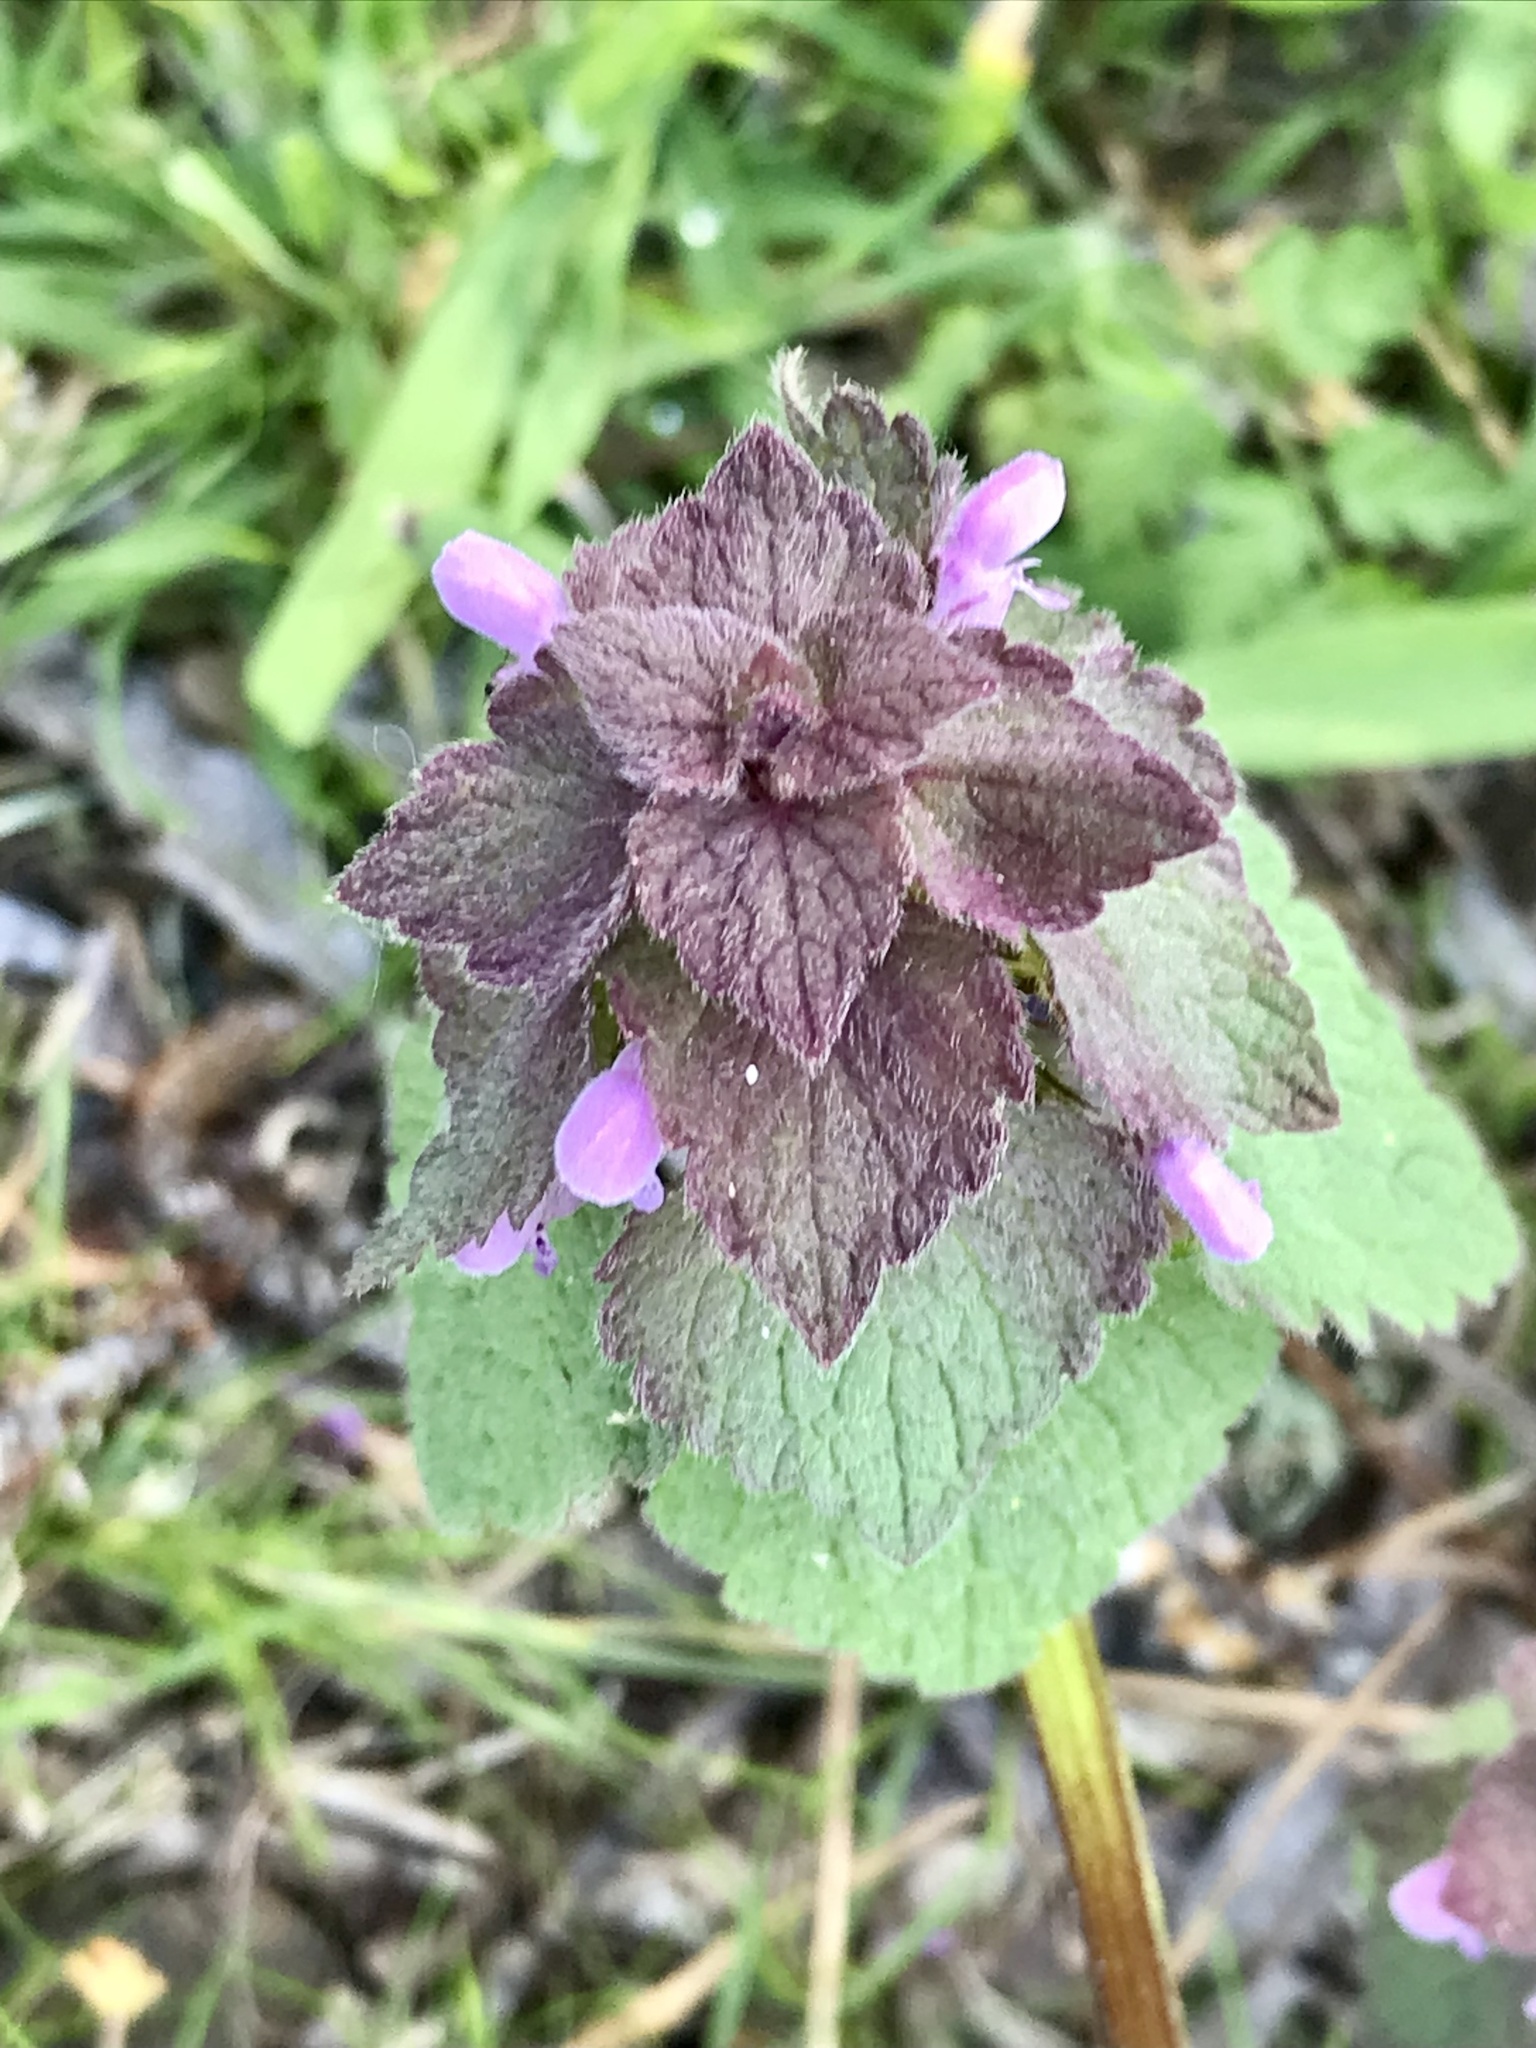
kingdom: Plantae
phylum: Tracheophyta
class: Magnoliopsida
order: Lamiales
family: Lamiaceae
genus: Lamium
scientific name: Lamium purpureum
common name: Red dead-nettle
